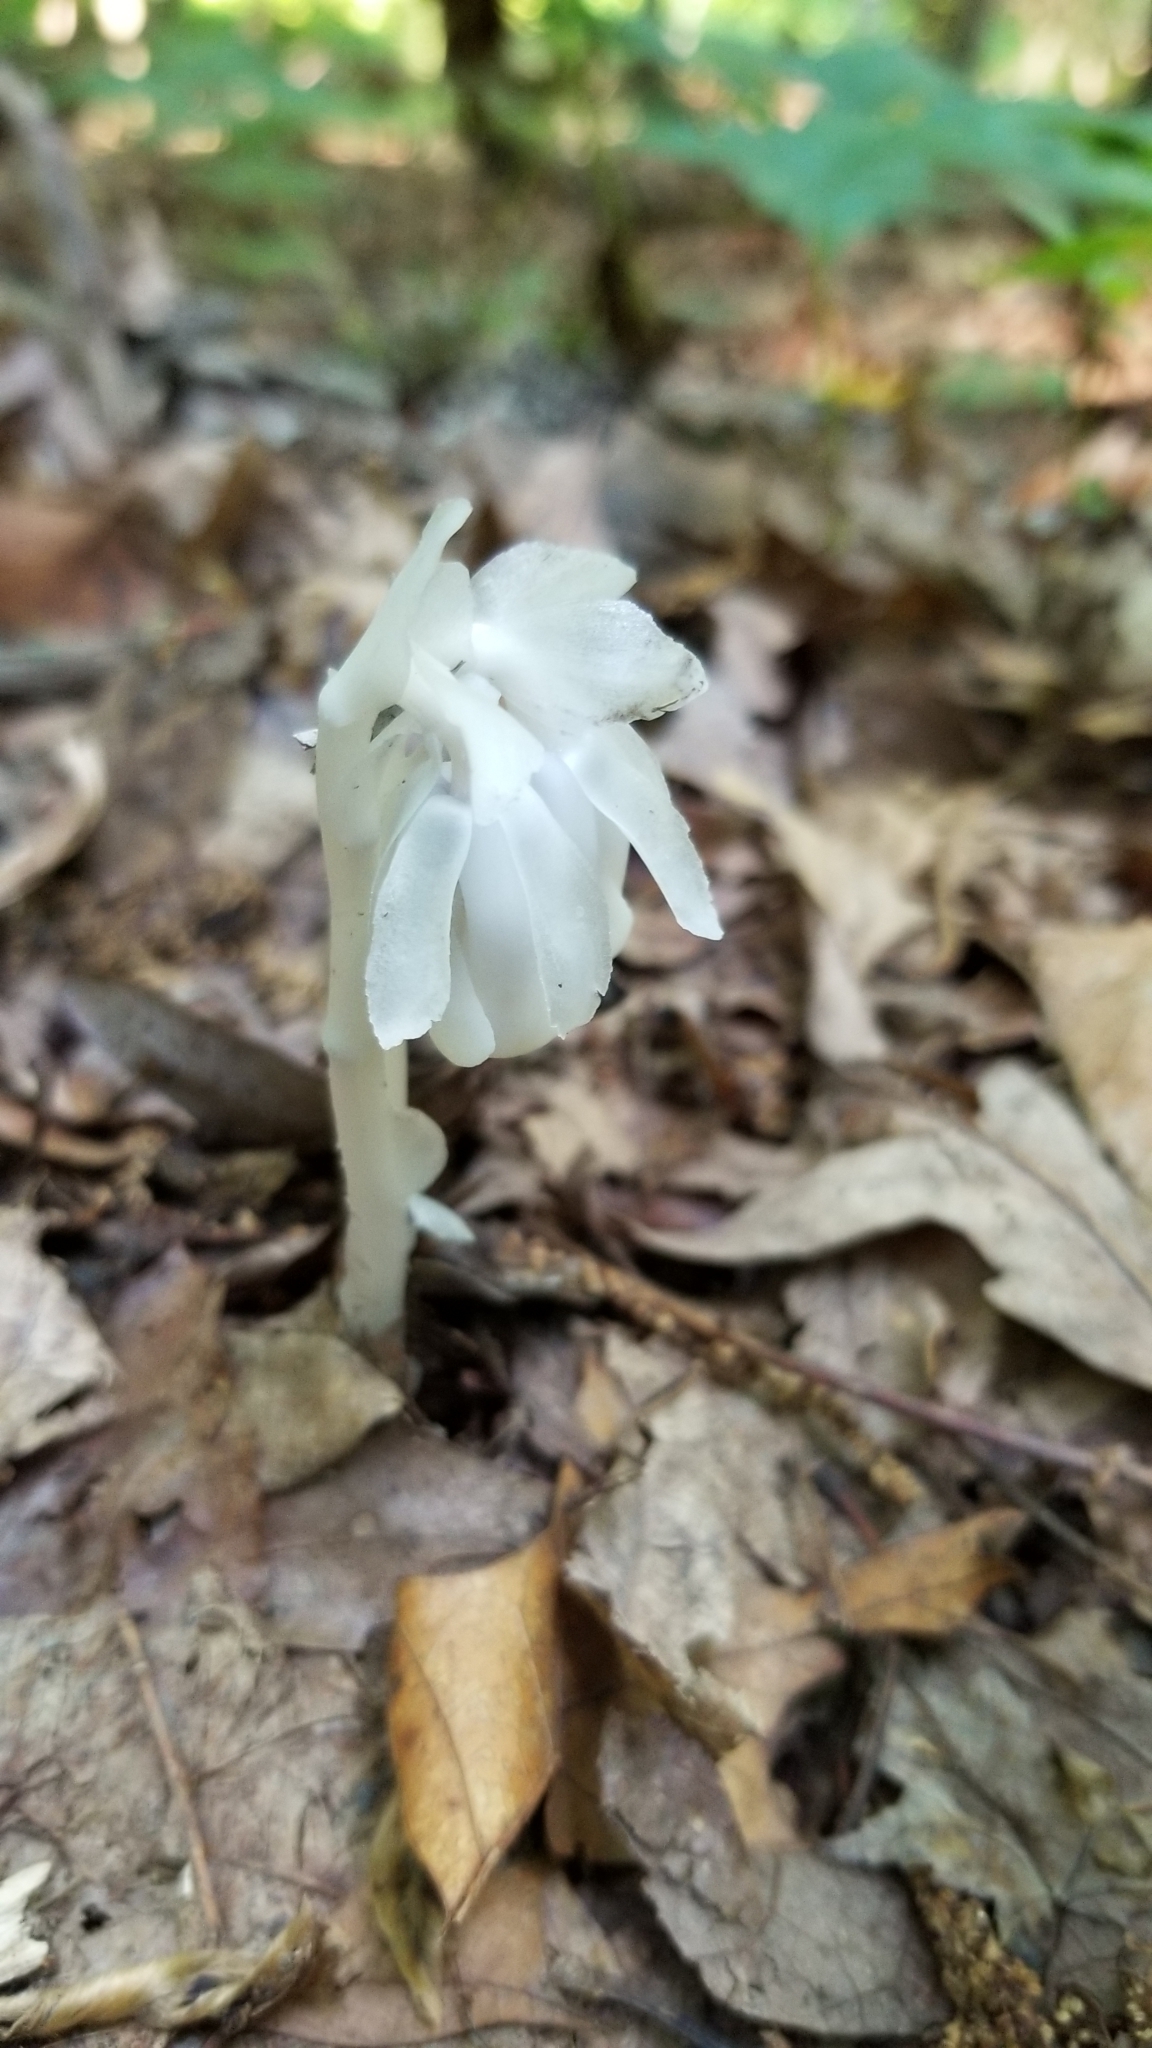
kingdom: Plantae
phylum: Tracheophyta
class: Magnoliopsida
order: Ericales
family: Ericaceae
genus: Monotropa
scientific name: Monotropa uniflora
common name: Convulsion root
